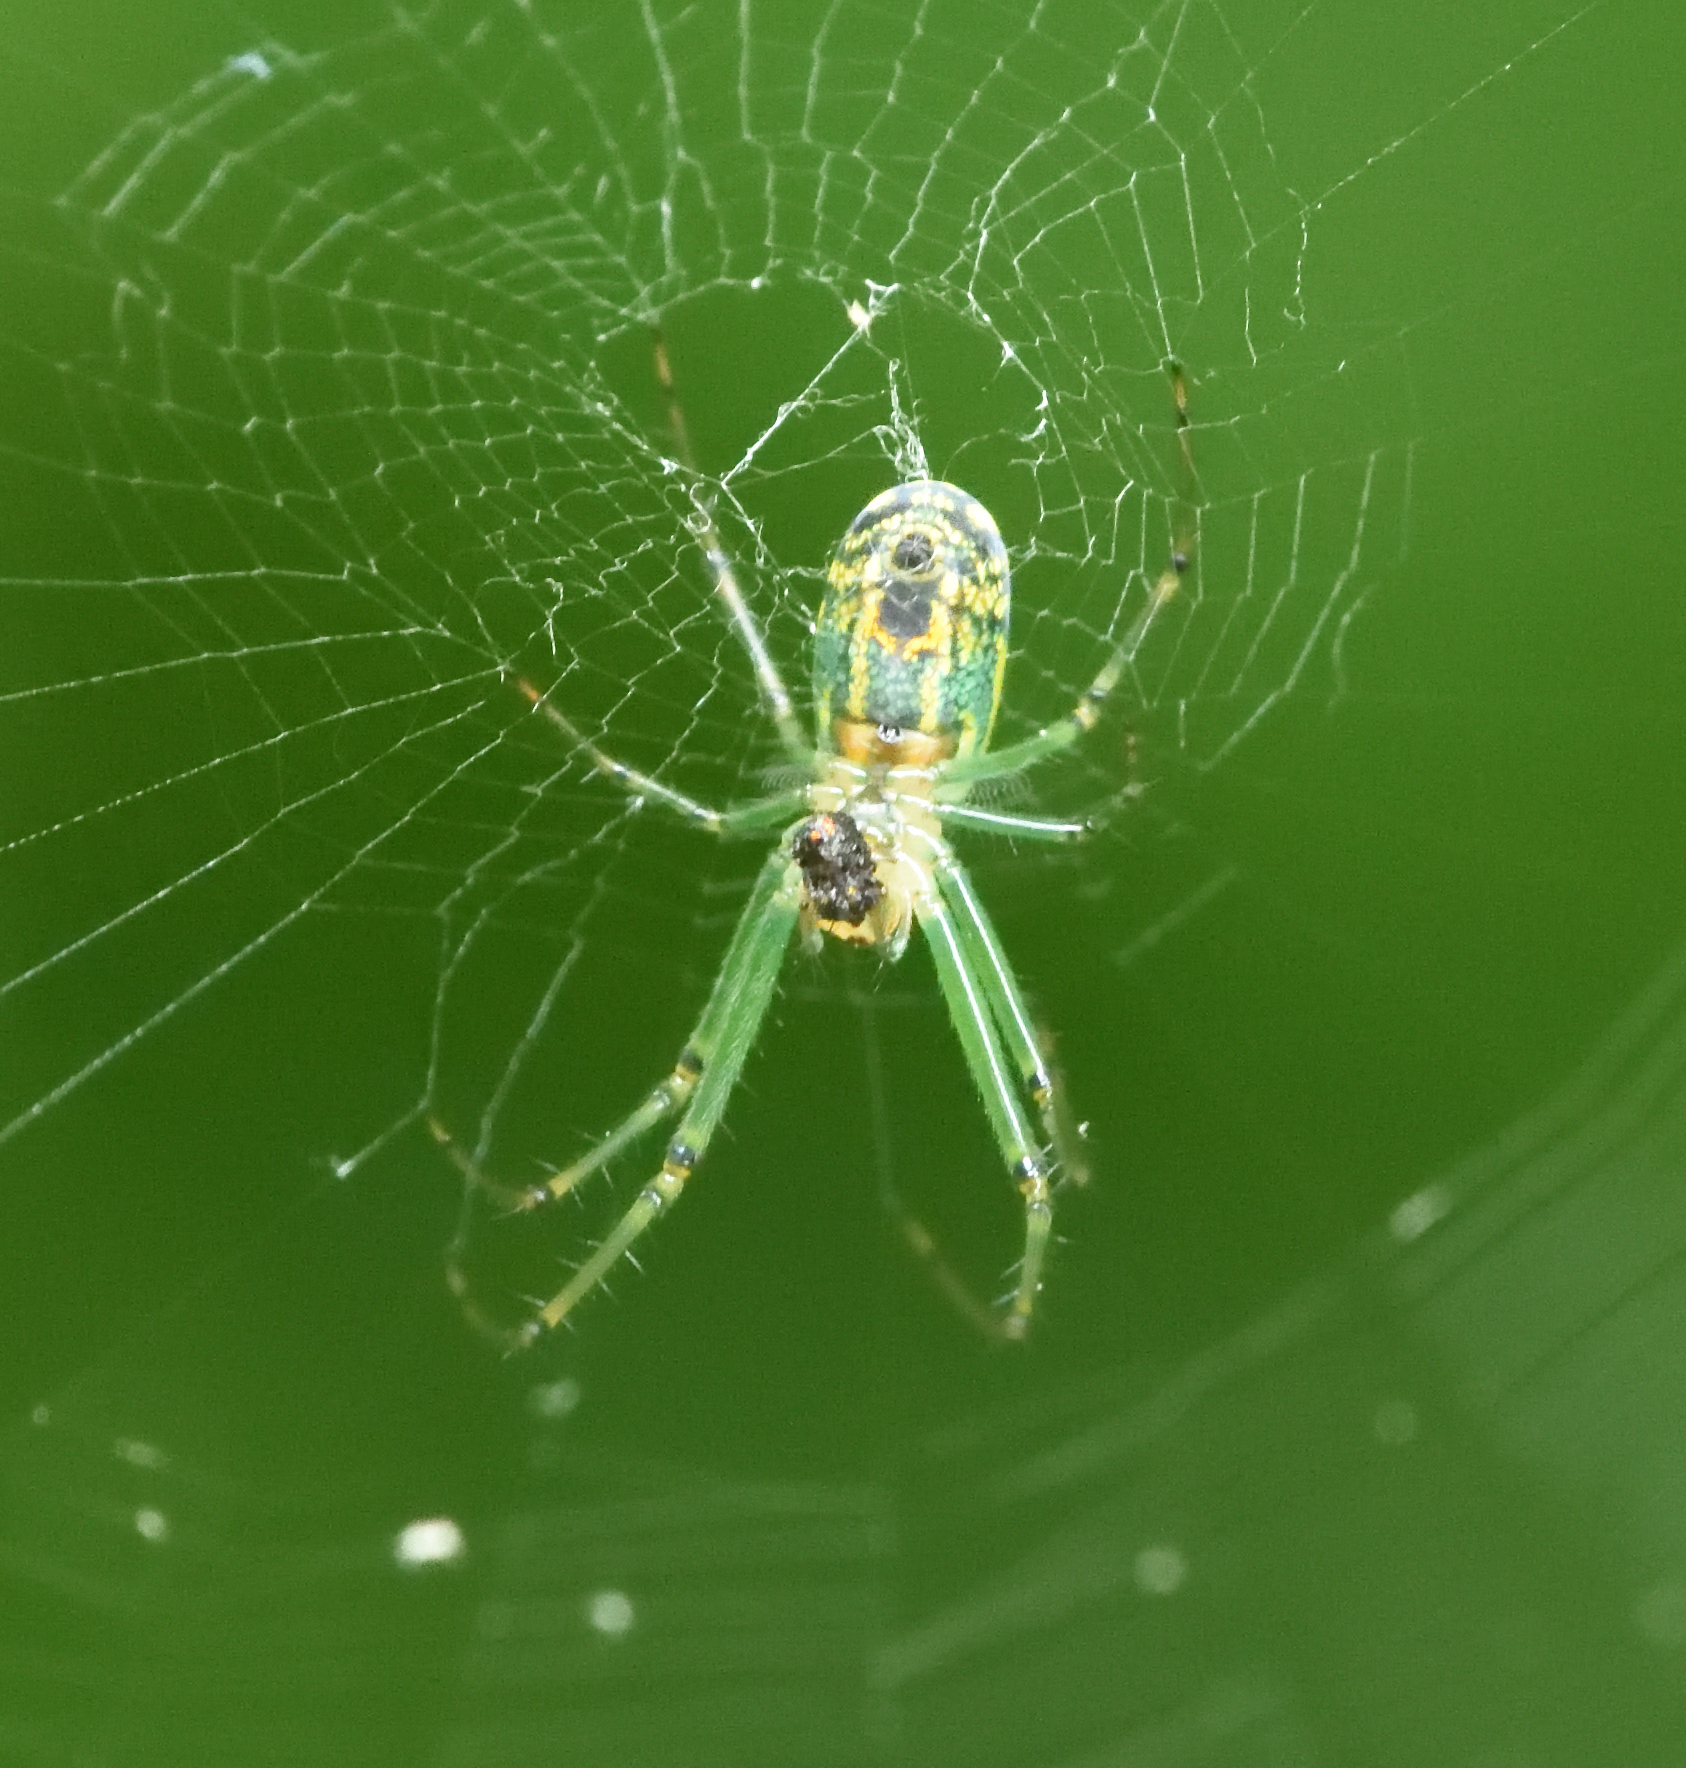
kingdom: Animalia
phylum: Arthropoda
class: Arachnida
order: Araneae
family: Tetragnathidae
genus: Leucauge
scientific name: Leucauge venusta
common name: Longjawed orb weavers
